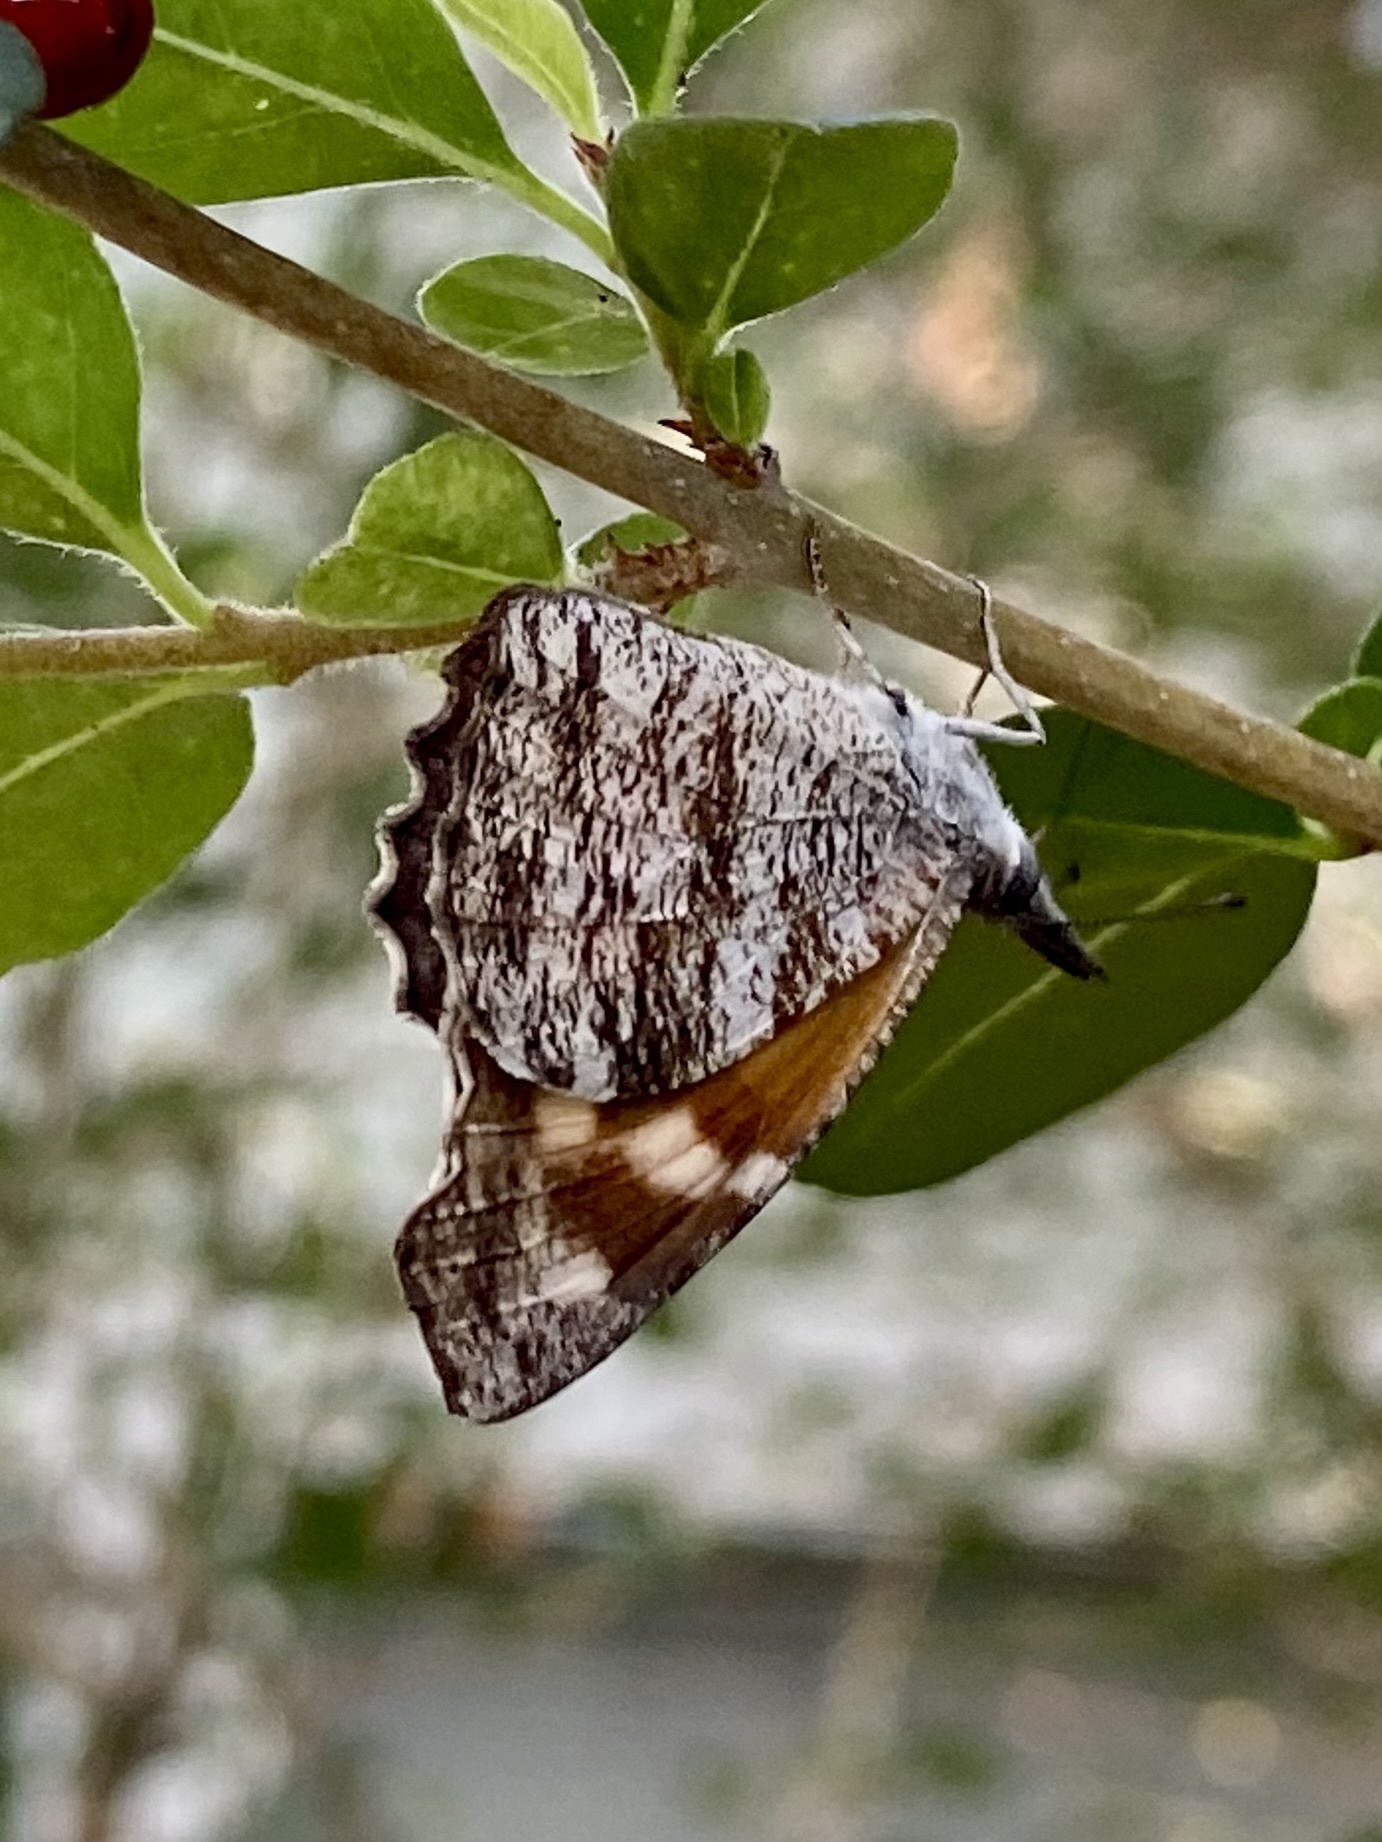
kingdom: Animalia
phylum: Arthropoda
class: Insecta
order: Lepidoptera
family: Nymphalidae
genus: Libytheana
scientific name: Libytheana carinenta
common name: American snout
